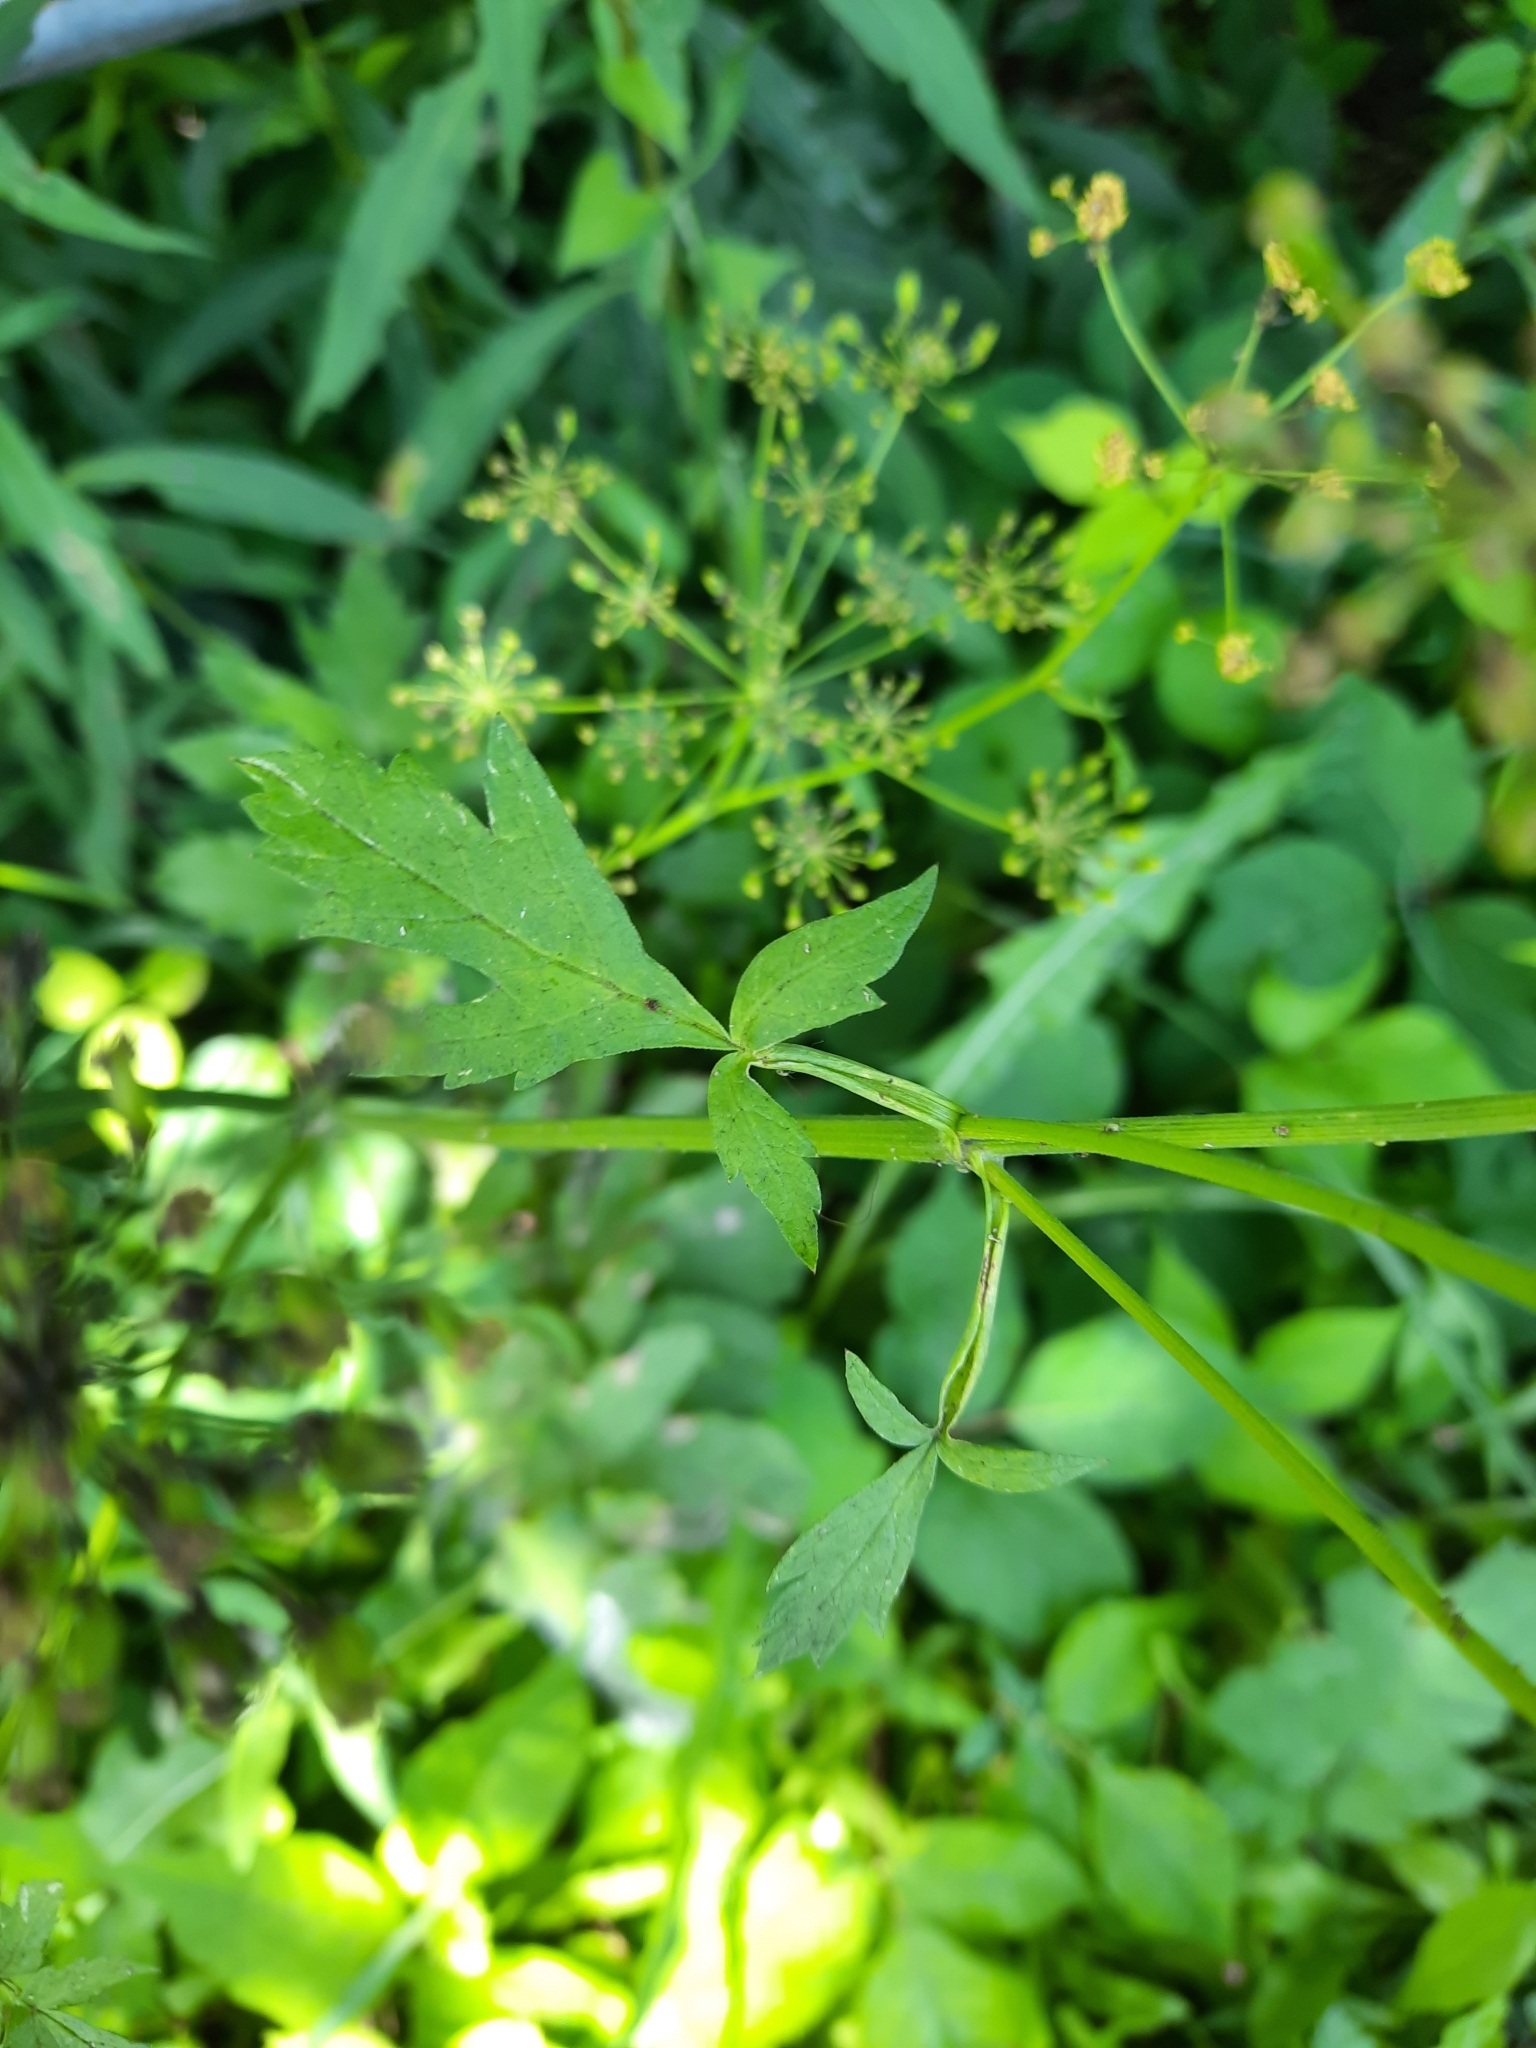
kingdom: Plantae
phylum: Tracheophyta
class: Magnoliopsida
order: Apiales
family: Apiaceae
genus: Zizia
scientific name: Zizia aurea
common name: Golden alexanders
